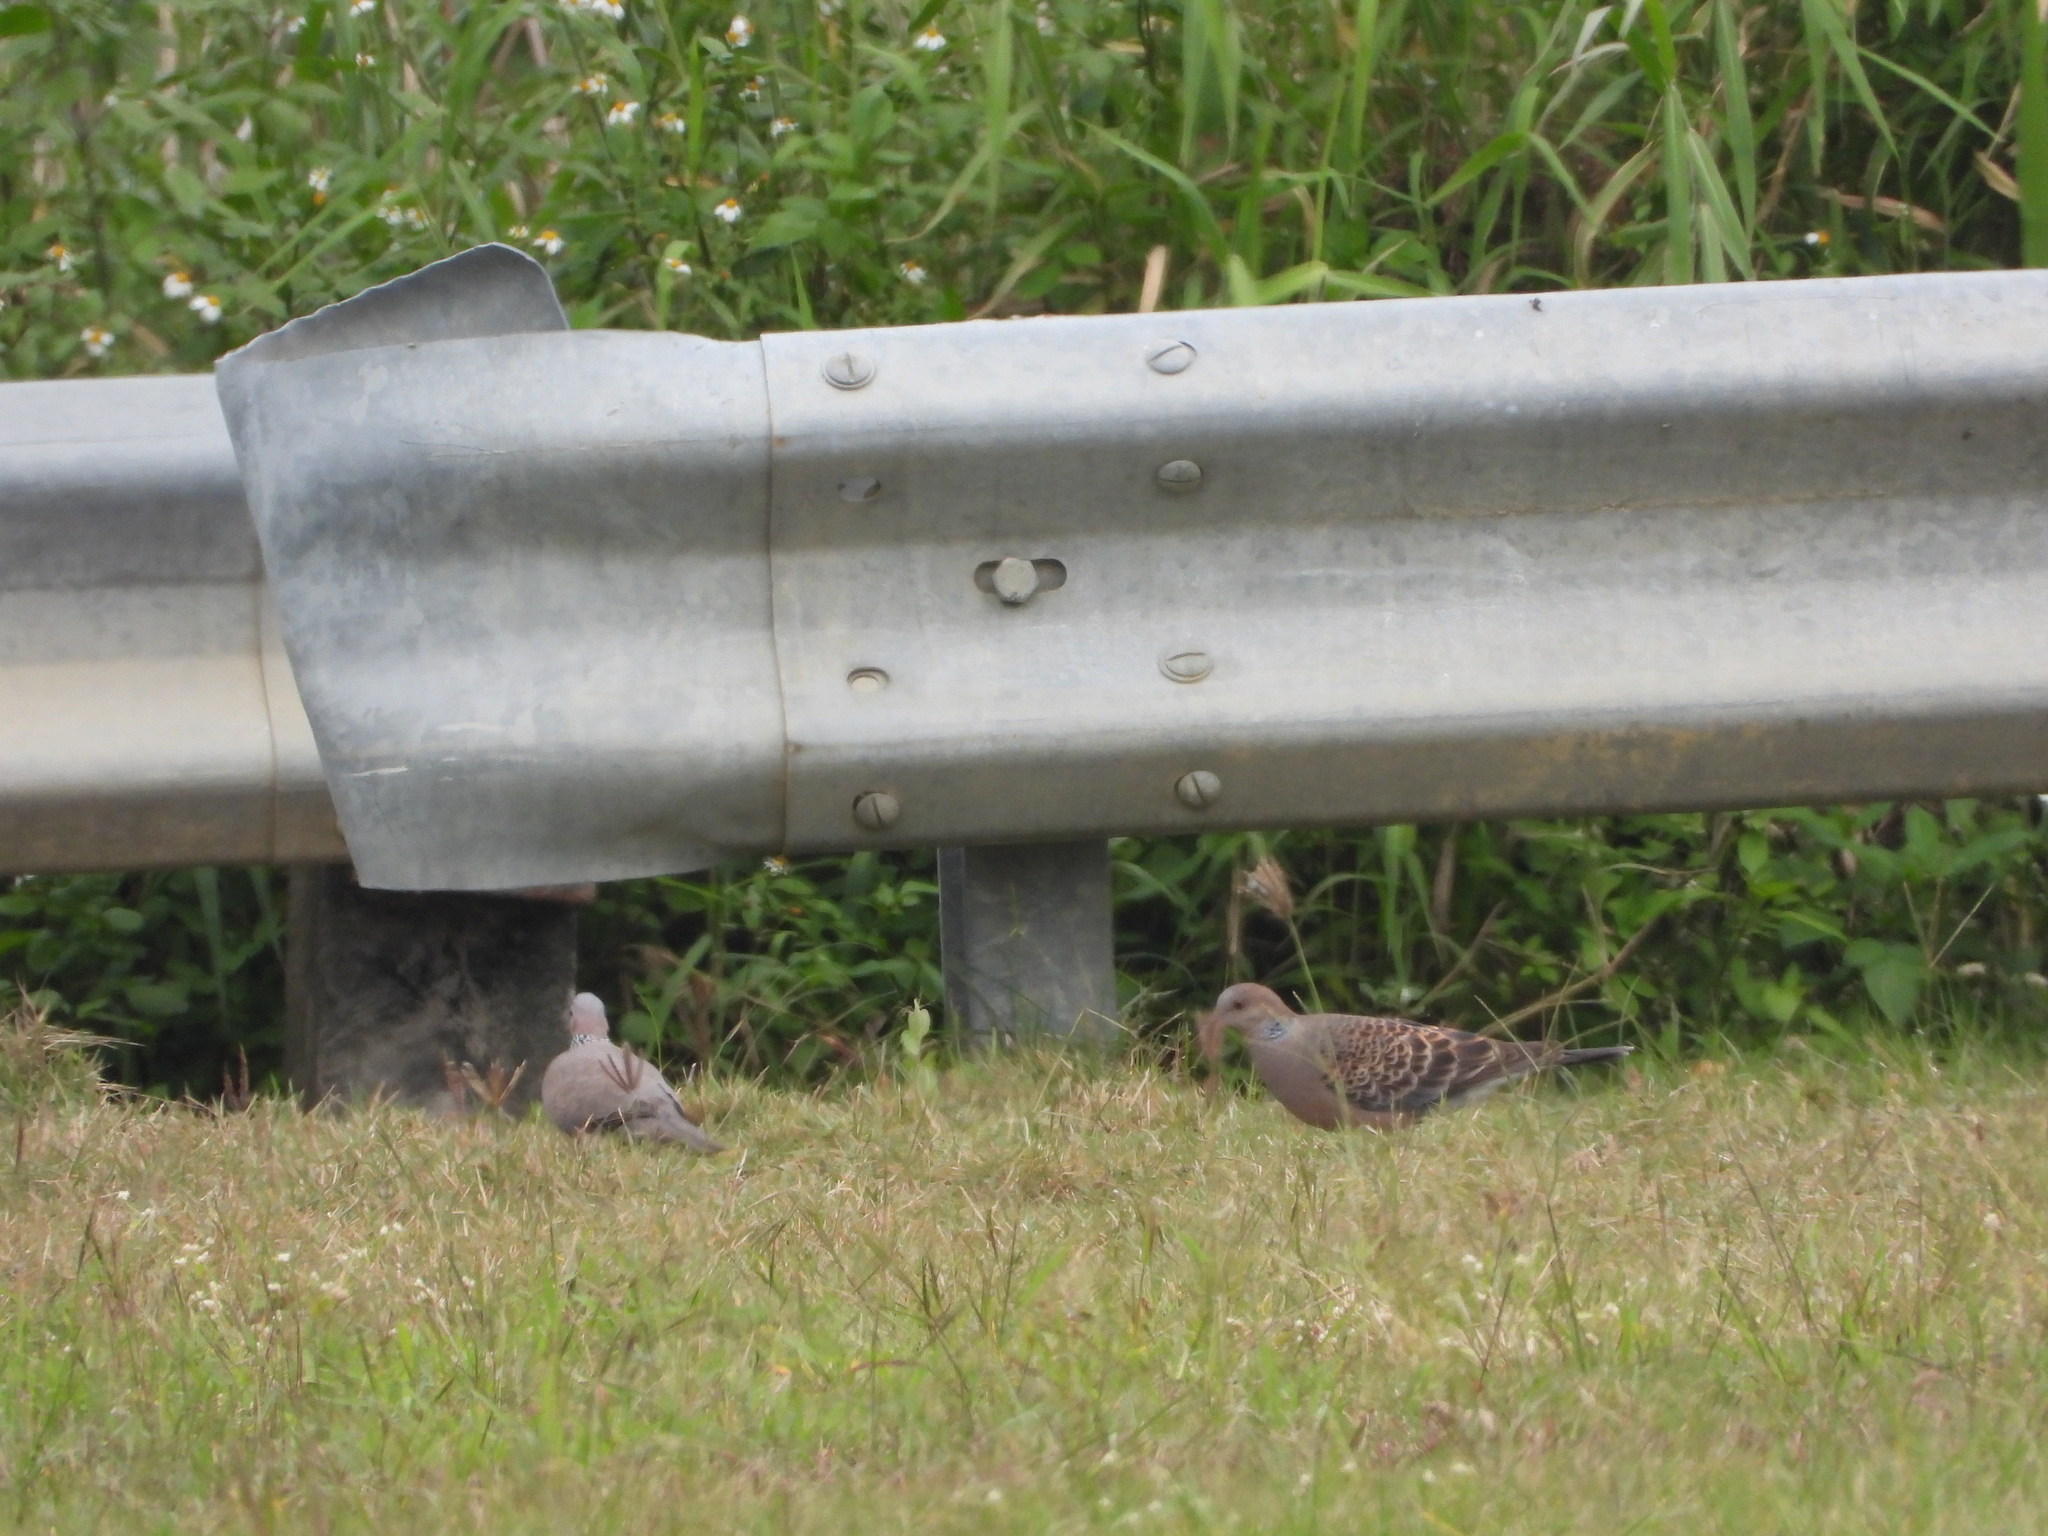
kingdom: Animalia
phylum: Chordata
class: Aves
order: Columbiformes
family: Columbidae
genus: Streptopelia
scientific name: Streptopelia orientalis
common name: Oriental turtle dove
